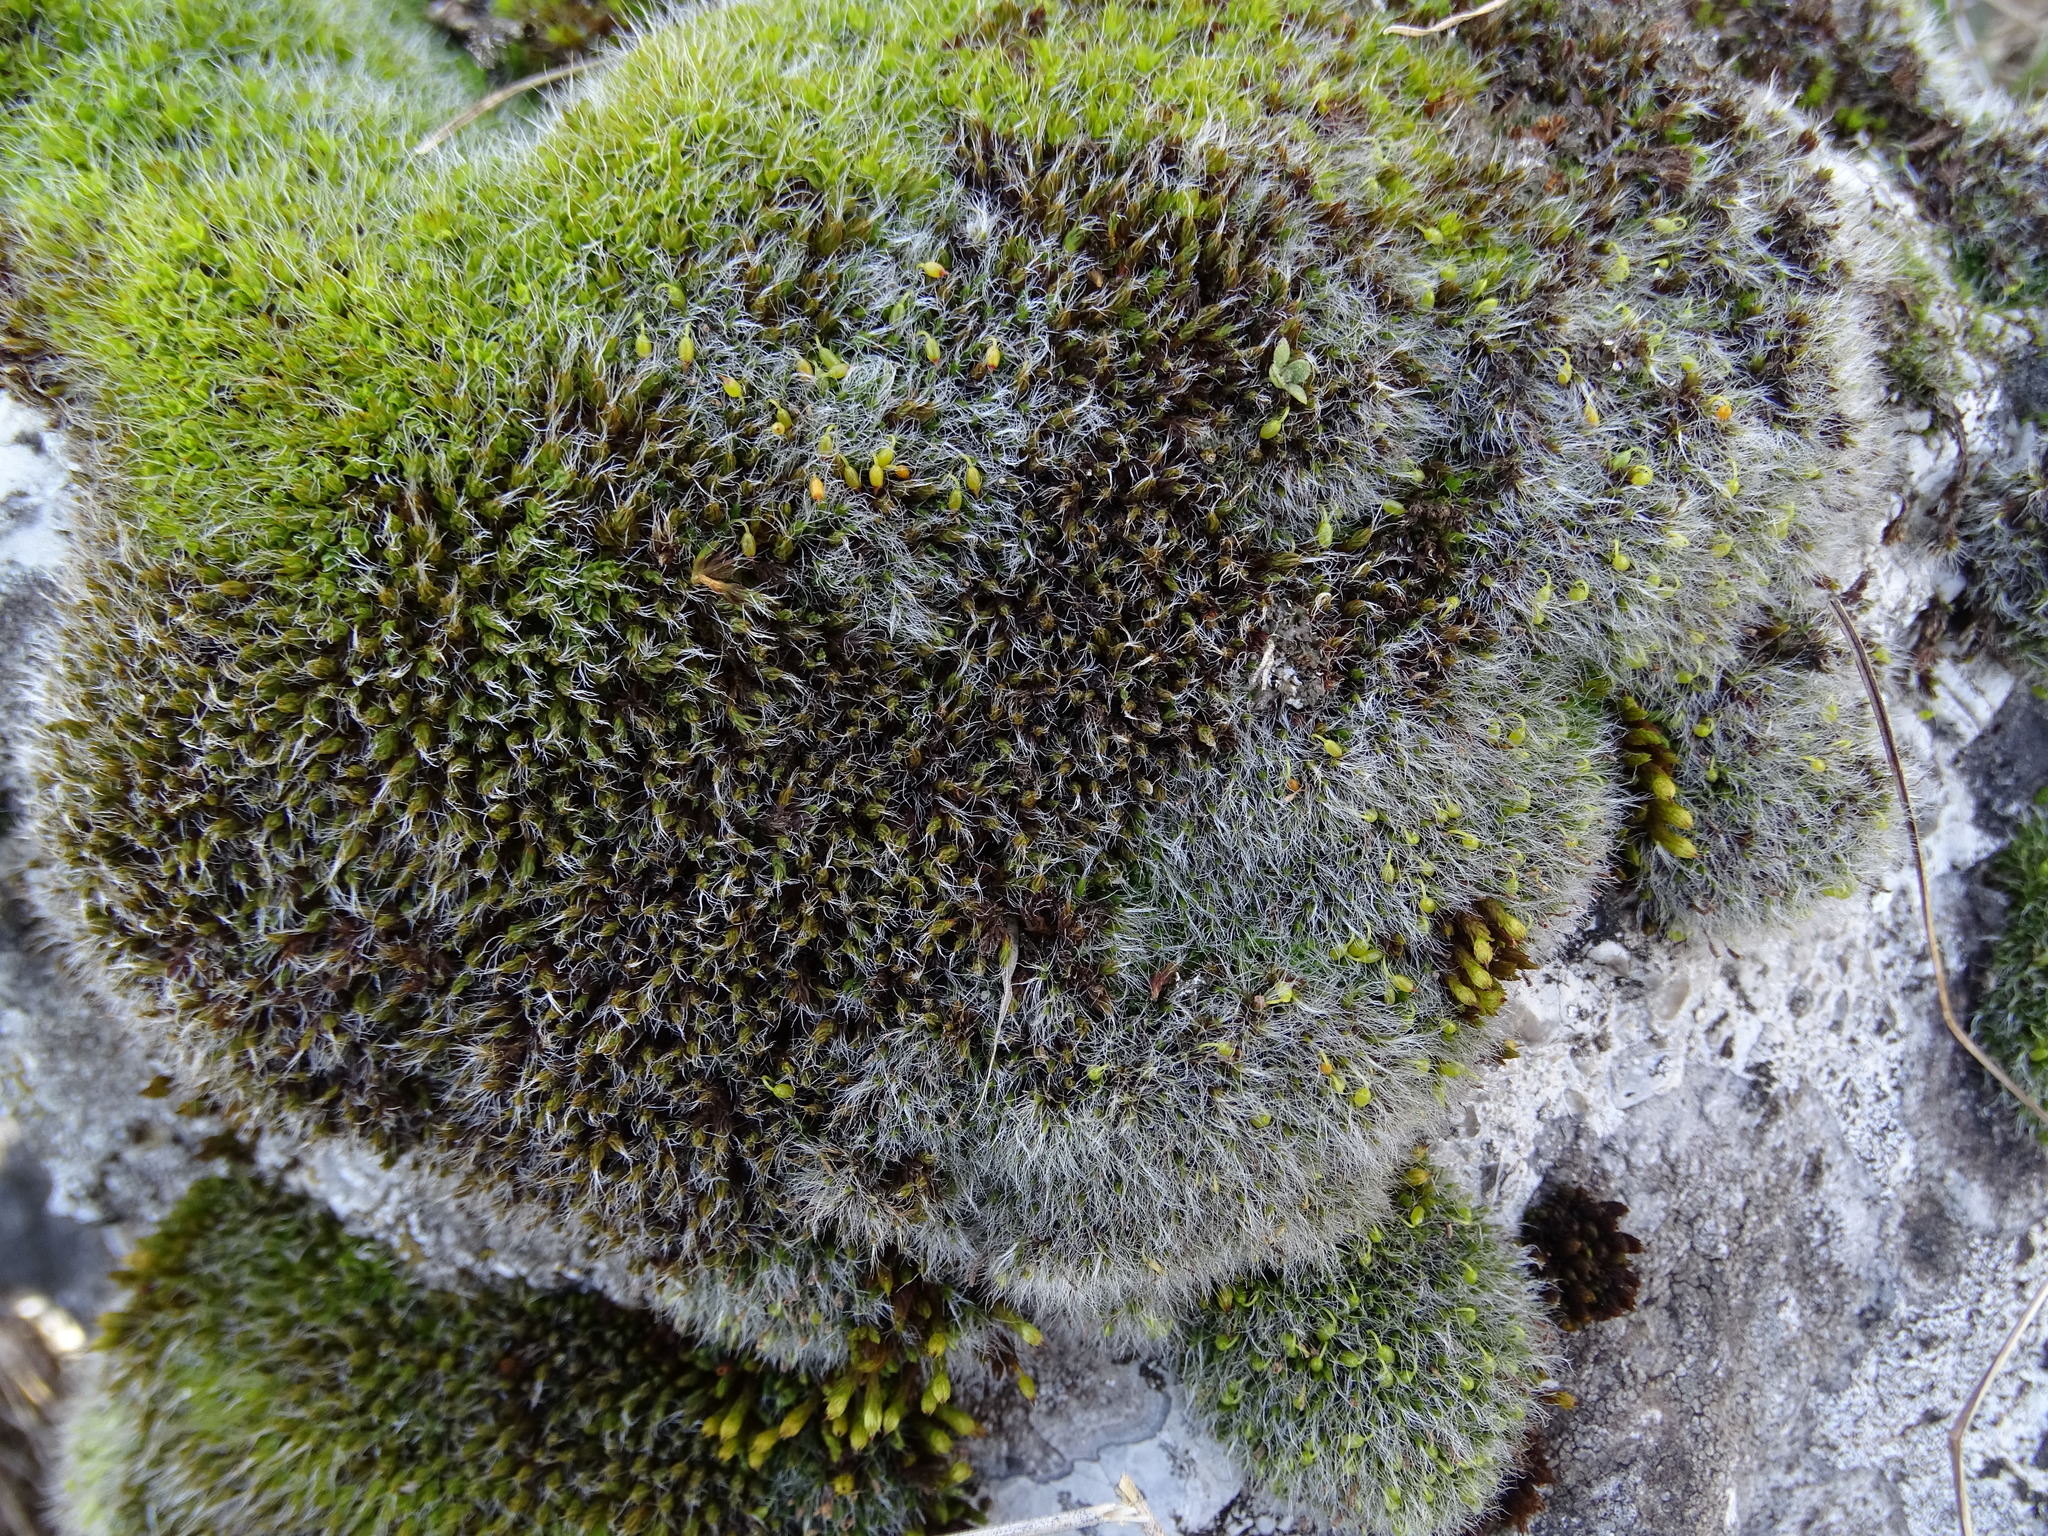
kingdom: Plantae
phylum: Bryophyta
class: Bryopsida
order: Grimmiales
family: Grimmiaceae
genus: Grimmia
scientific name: Grimmia pulvinata
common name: Grey-cushioned grimmia
